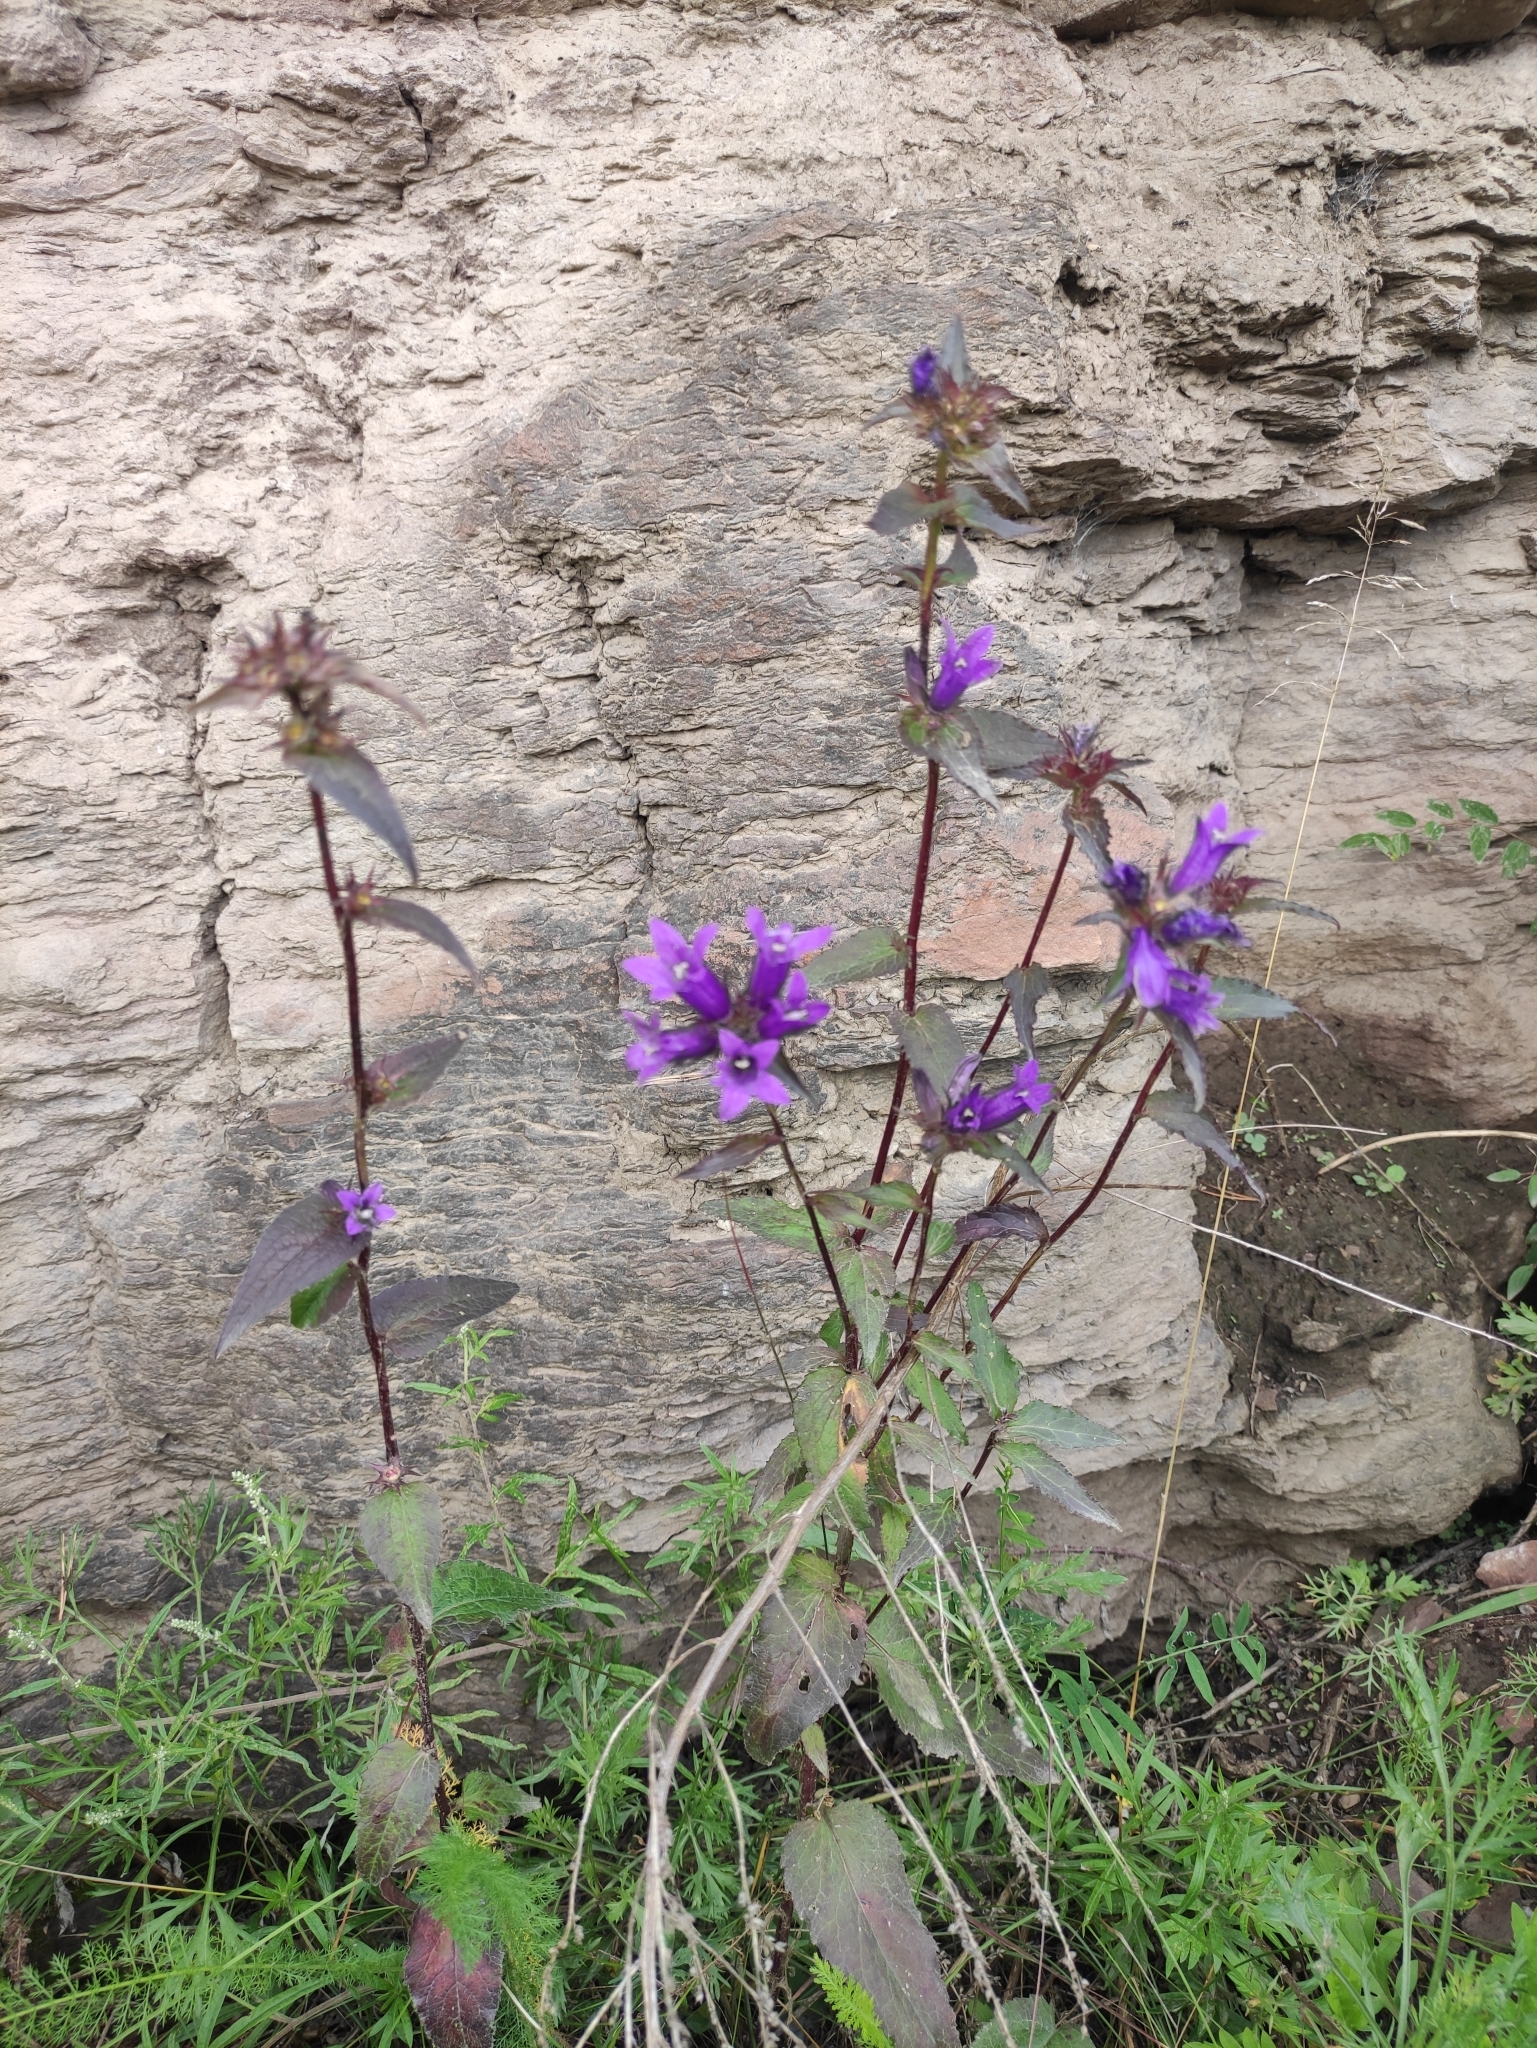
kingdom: Plantae
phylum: Tracheophyta
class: Magnoliopsida
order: Asterales
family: Campanulaceae
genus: Campanula
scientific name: Campanula glomerata
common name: Clustered bellflower
